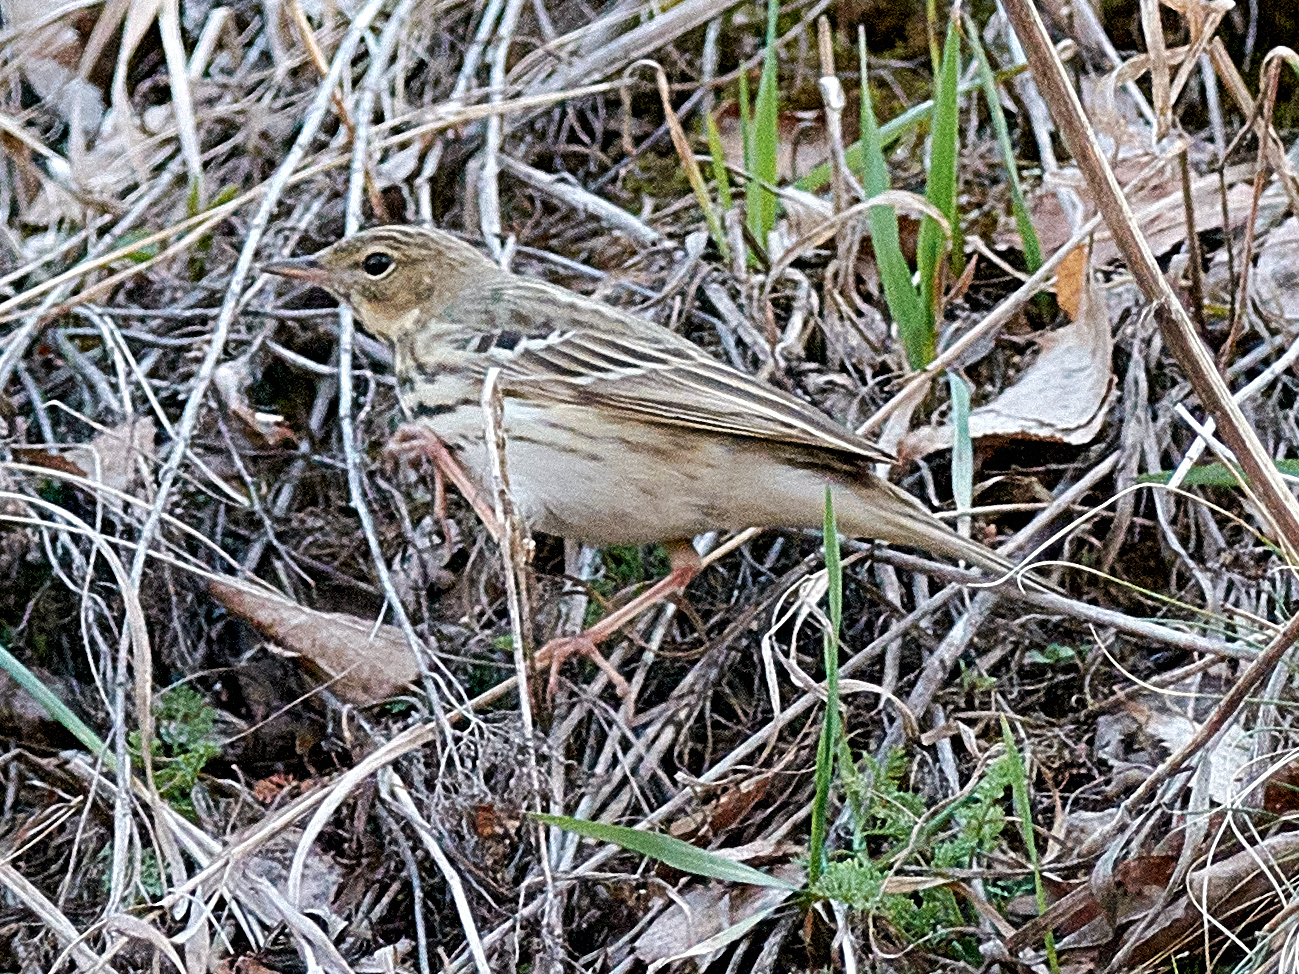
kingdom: Animalia
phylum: Chordata
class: Aves
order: Passeriformes
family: Motacillidae
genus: Anthus
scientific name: Anthus trivialis
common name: Tree pipit
